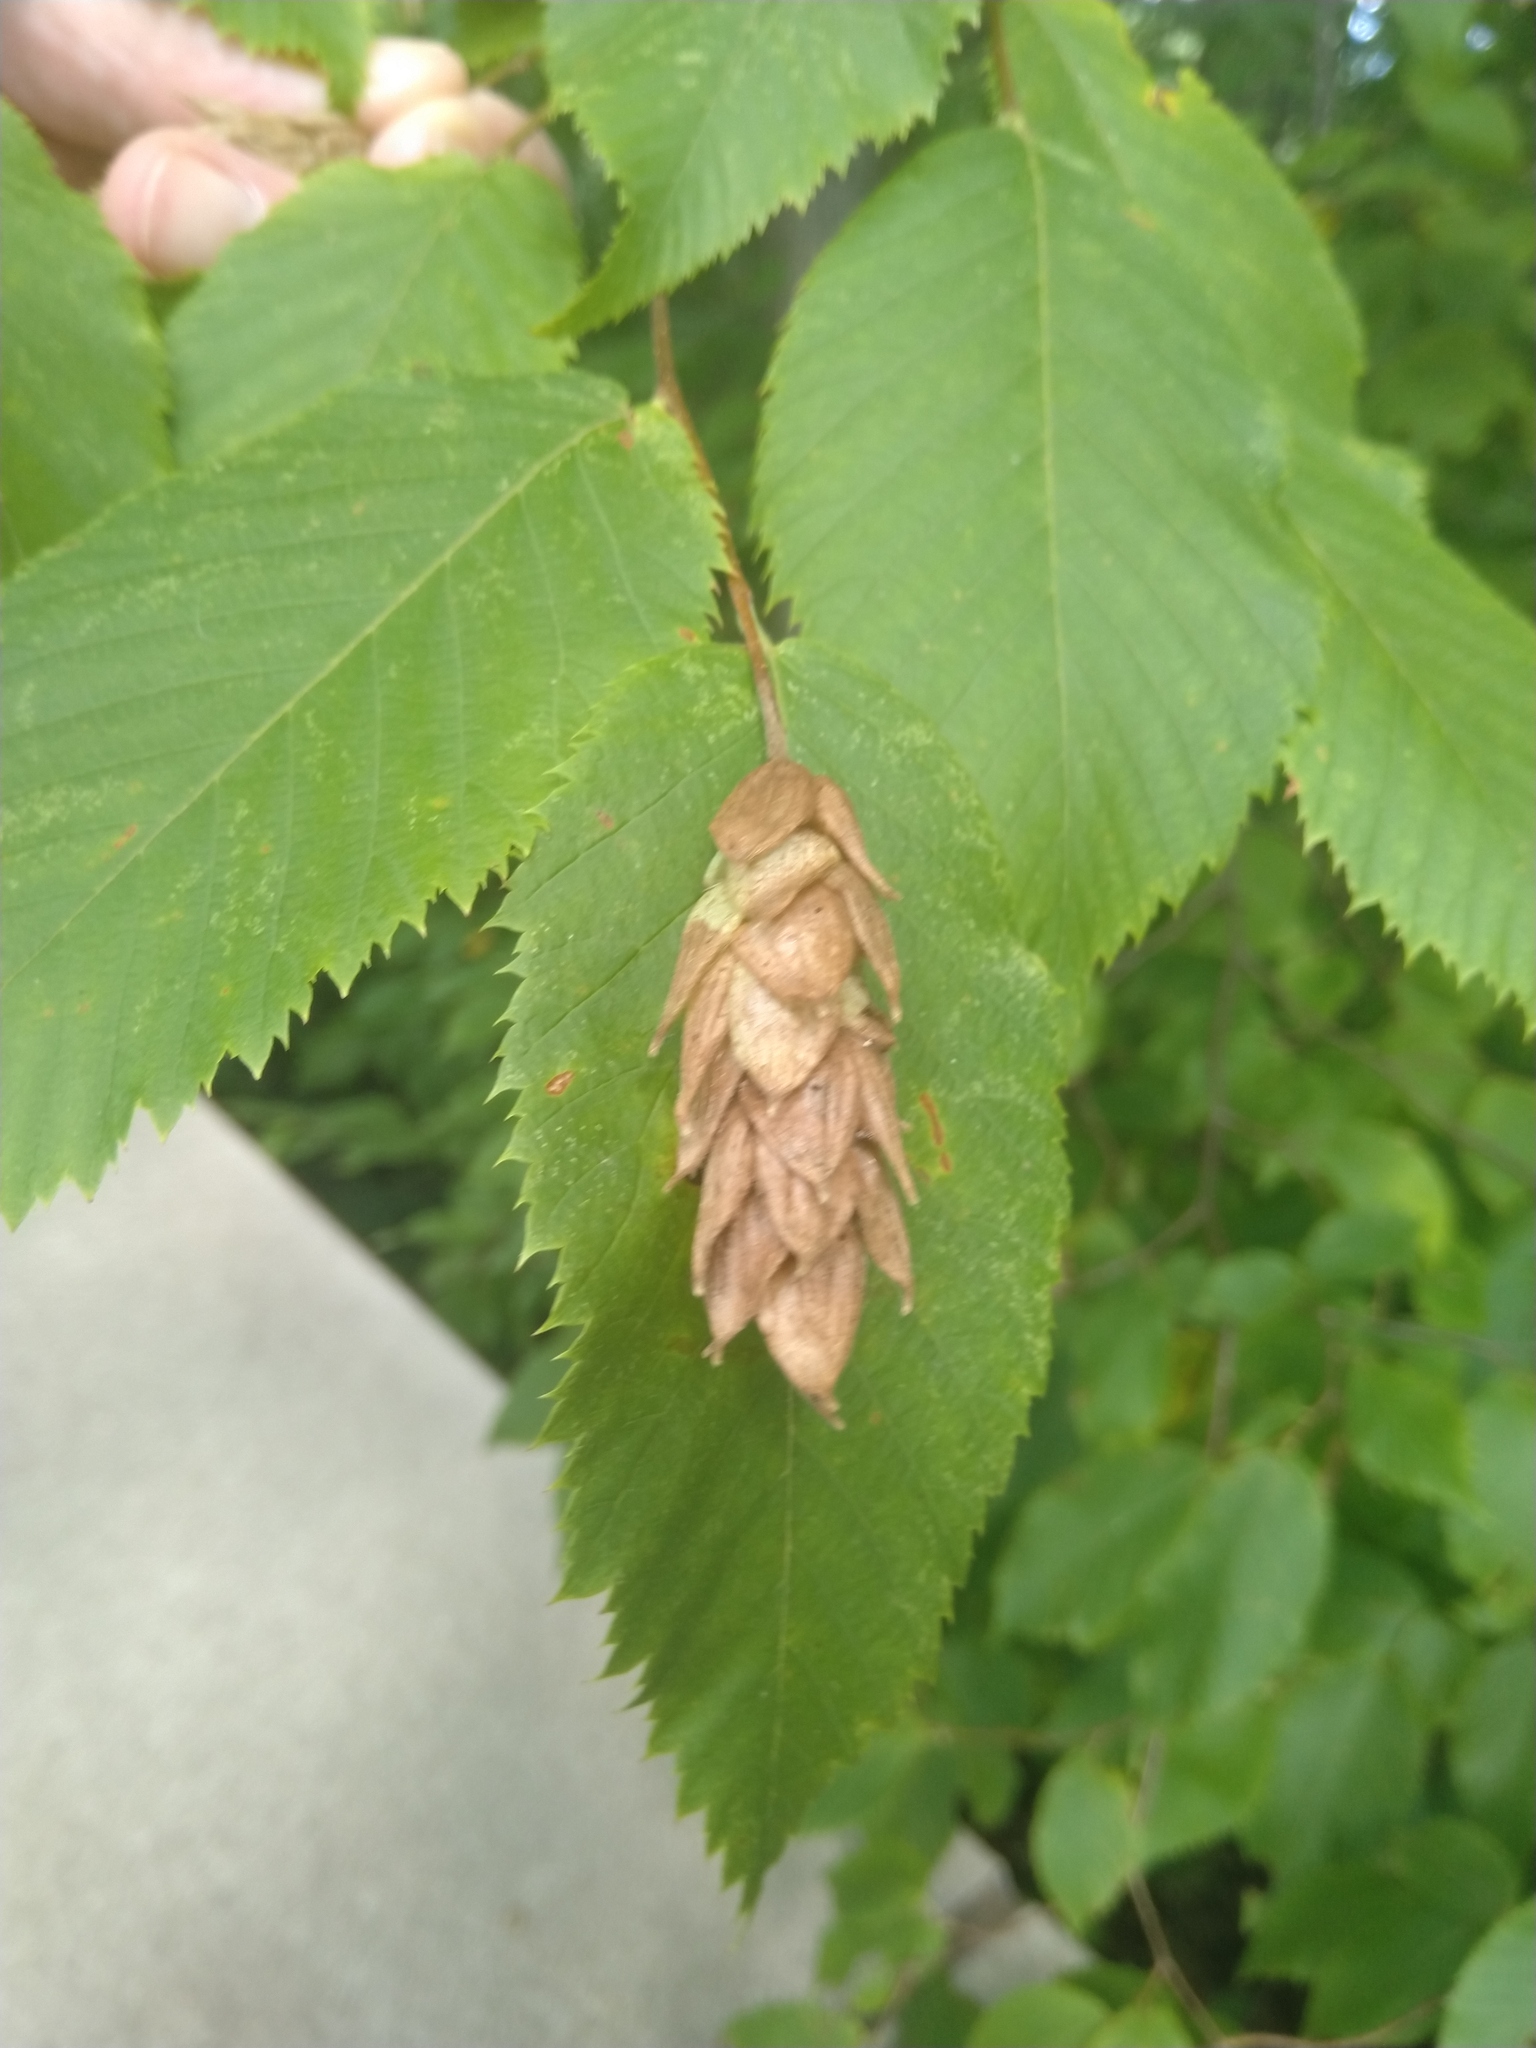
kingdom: Plantae
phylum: Tracheophyta
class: Magnoliopsida
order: Fagales
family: Betulaceae
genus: Ostrya
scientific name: Ostrya virginiana
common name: Ironwood
